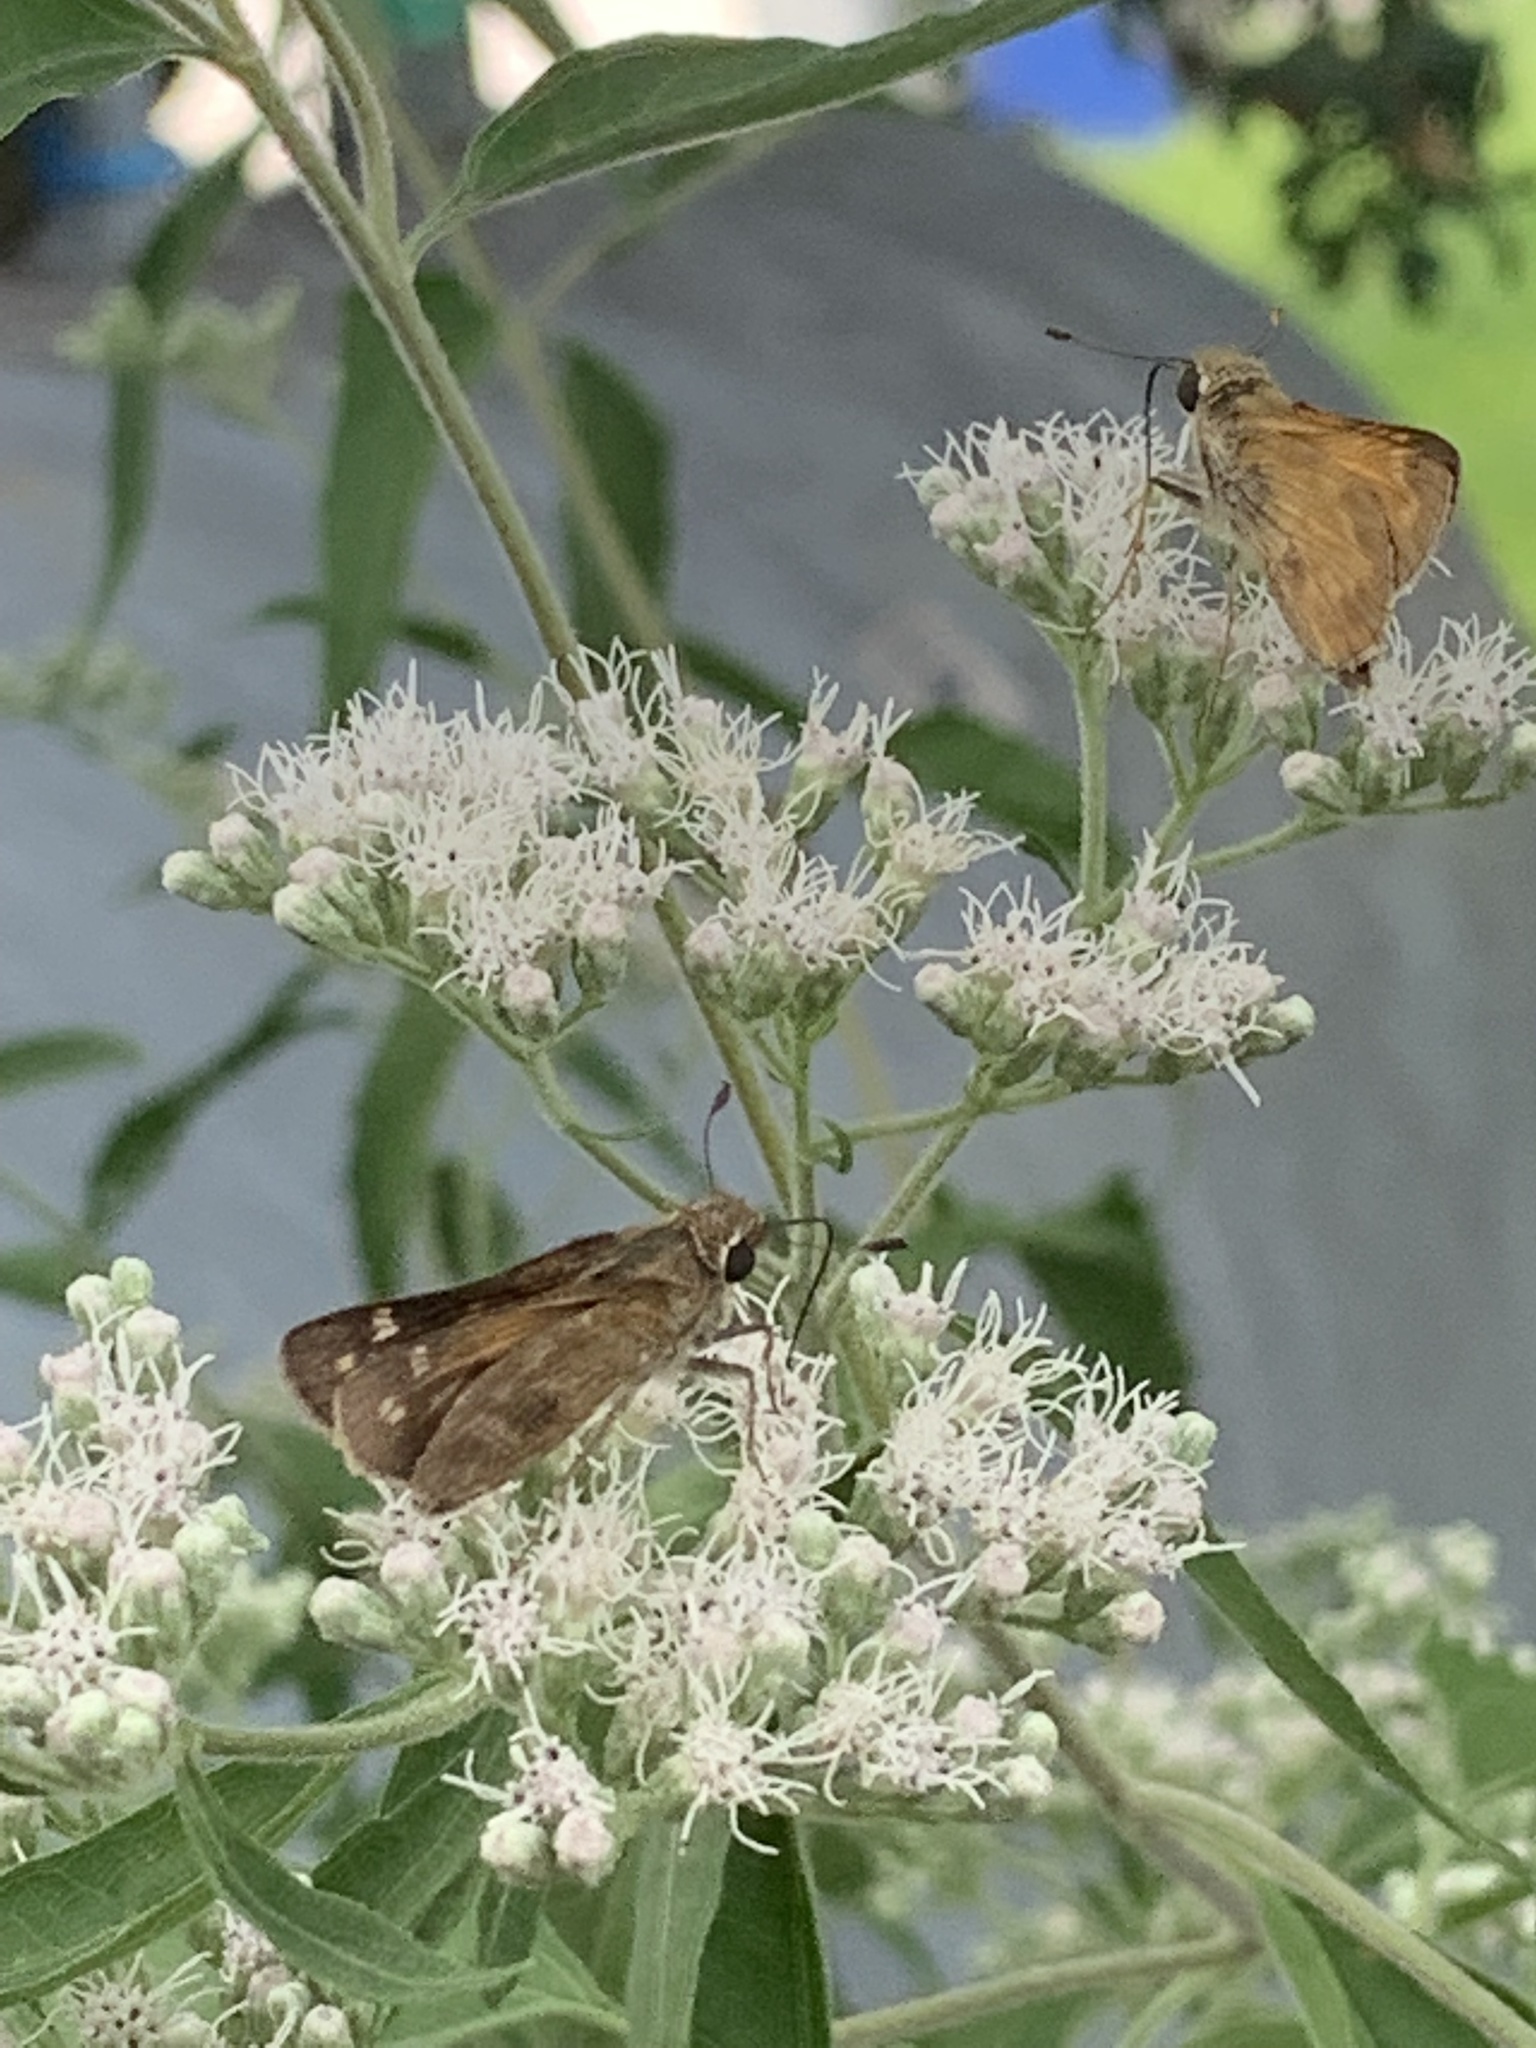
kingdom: Animalia
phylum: Arthropoda
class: Insecta
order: Lepidoptera
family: Hesperiidae
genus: Atalopedes
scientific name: Atalopedes
